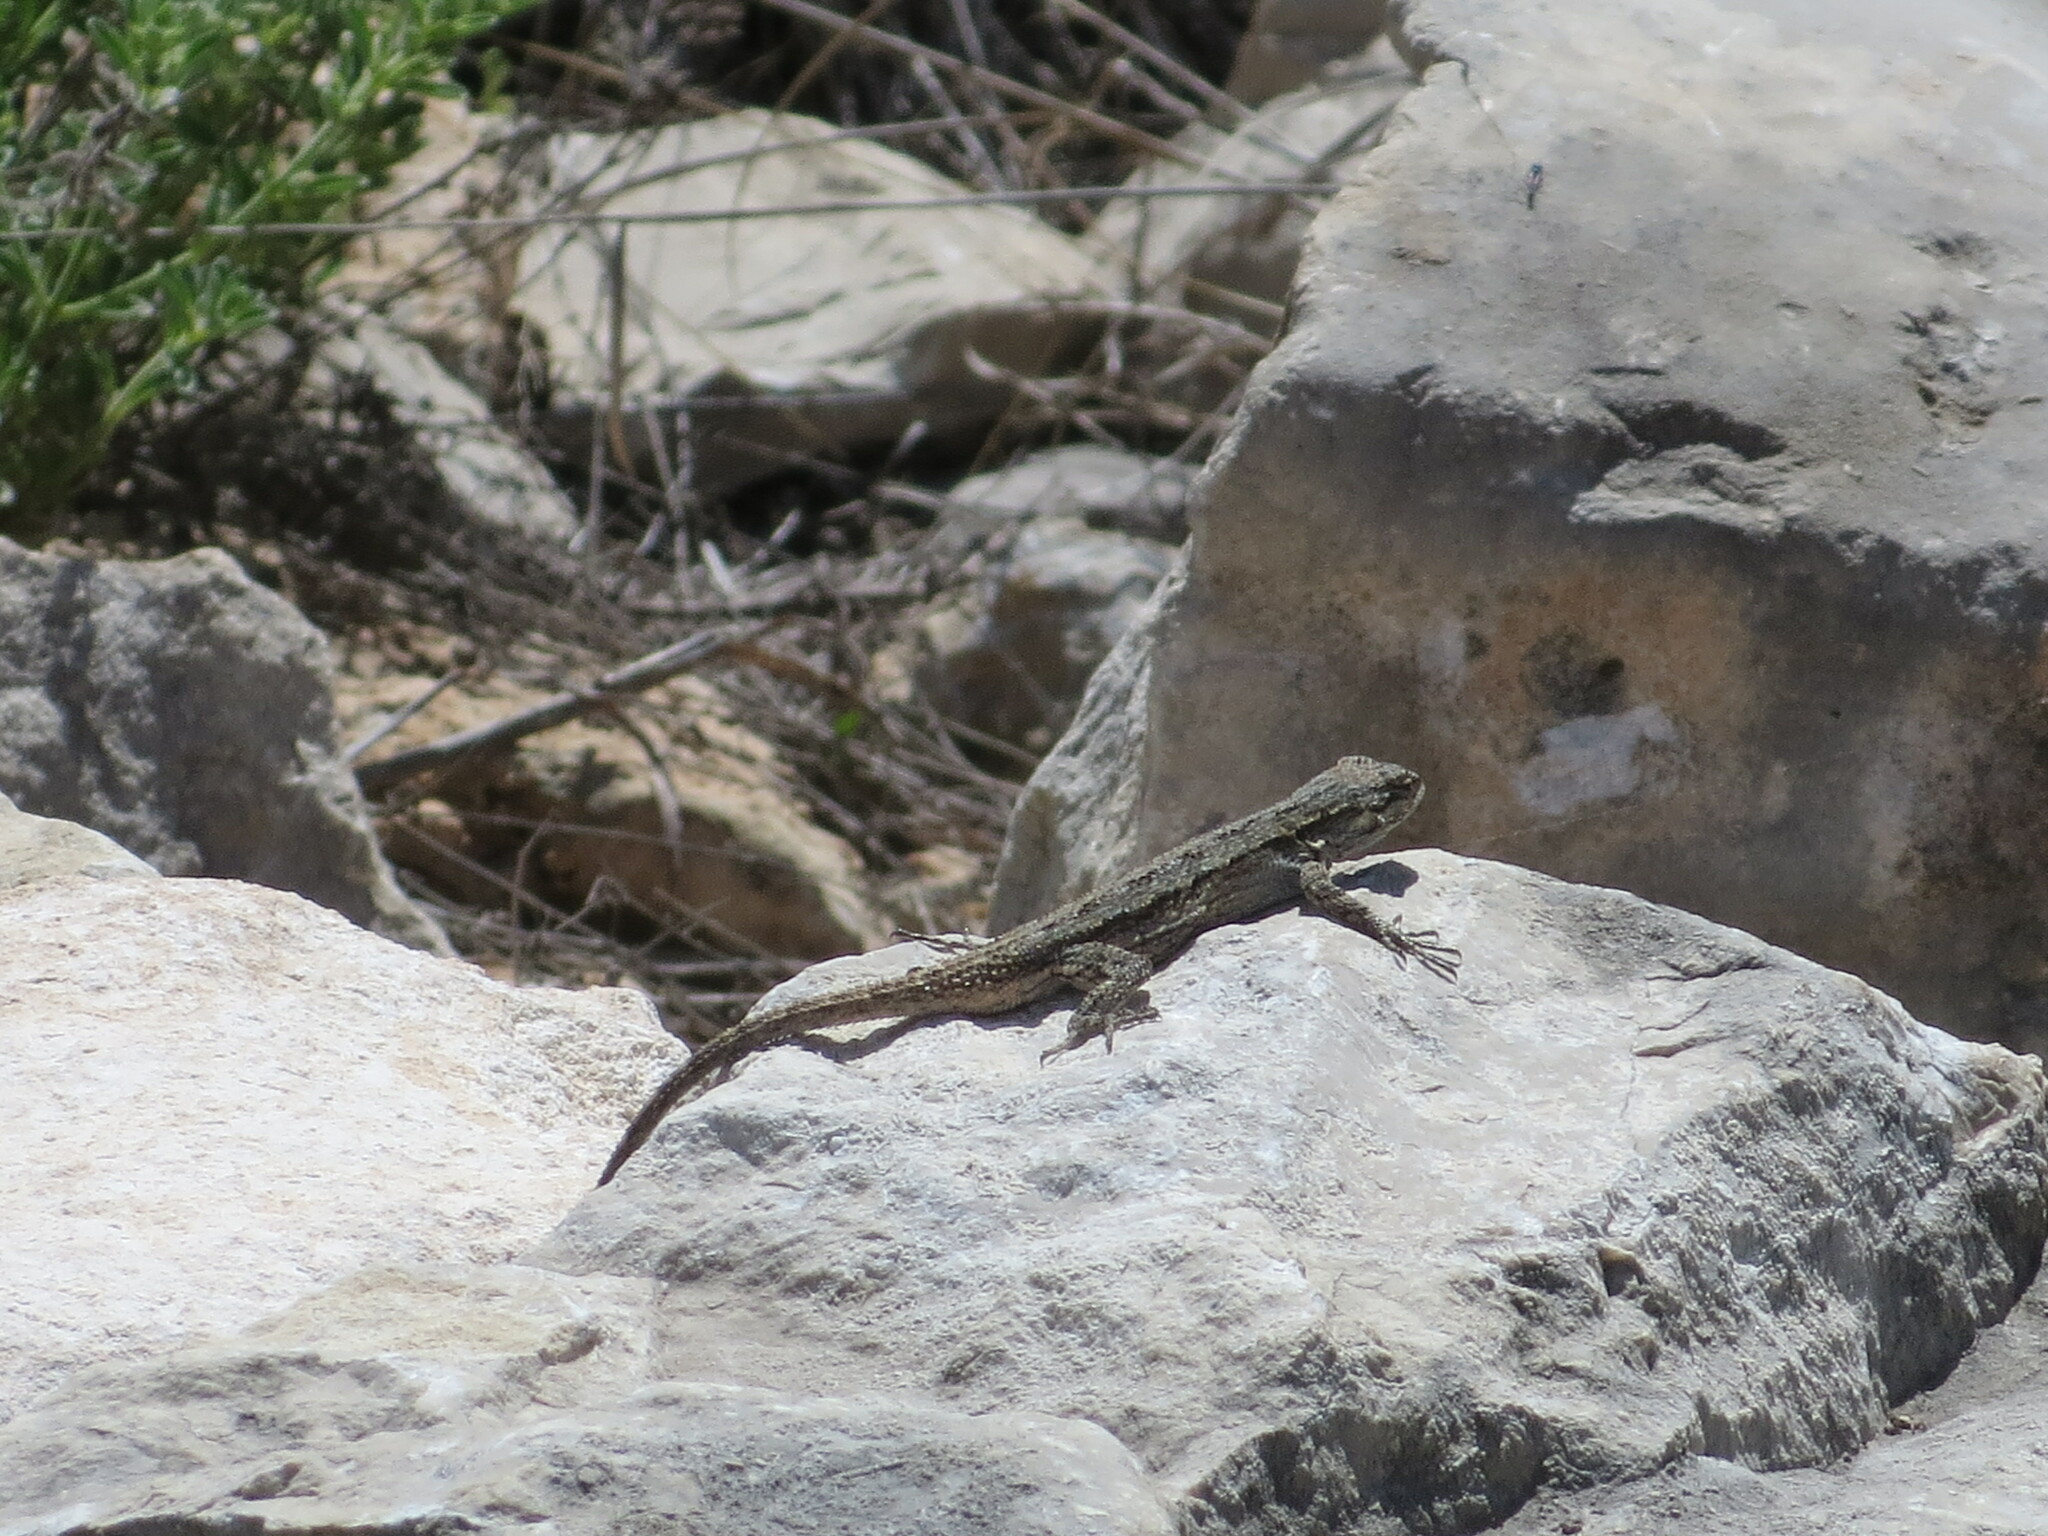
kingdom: Animalia
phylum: Chordata
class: Squamata
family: Phrynosomatidae
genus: Urosaurus
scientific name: Urosaurus ornatus
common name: Ornate tree lizard
